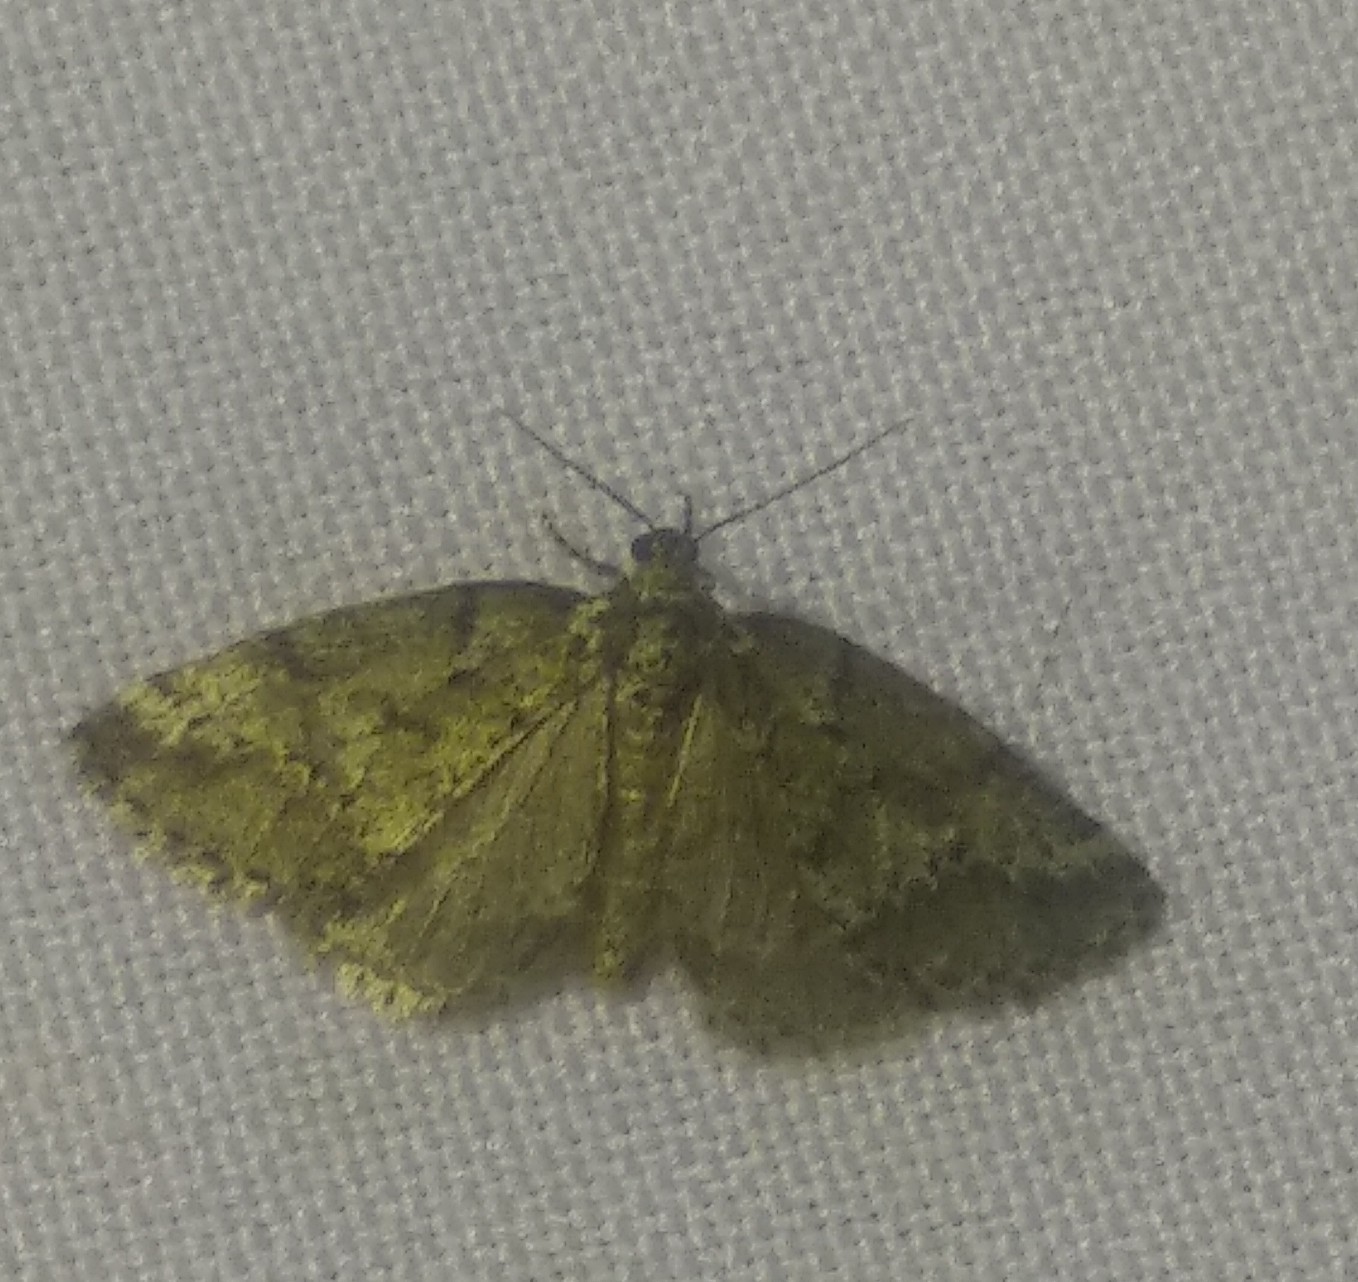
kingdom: Animalia
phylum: Arthropoda
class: Insecta
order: Lepidoptera
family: Geometridae
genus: Tephronia
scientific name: Tephronia sepiaria
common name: Dusky carpet
